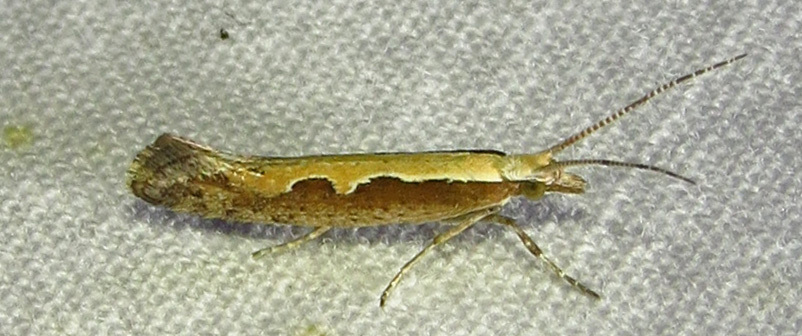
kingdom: Animalia
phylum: Arthropoda
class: Insecta
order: Lepidoptera
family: Plutellidae
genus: Plutella
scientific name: Plutella xylostella
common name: Diamond-back moth
